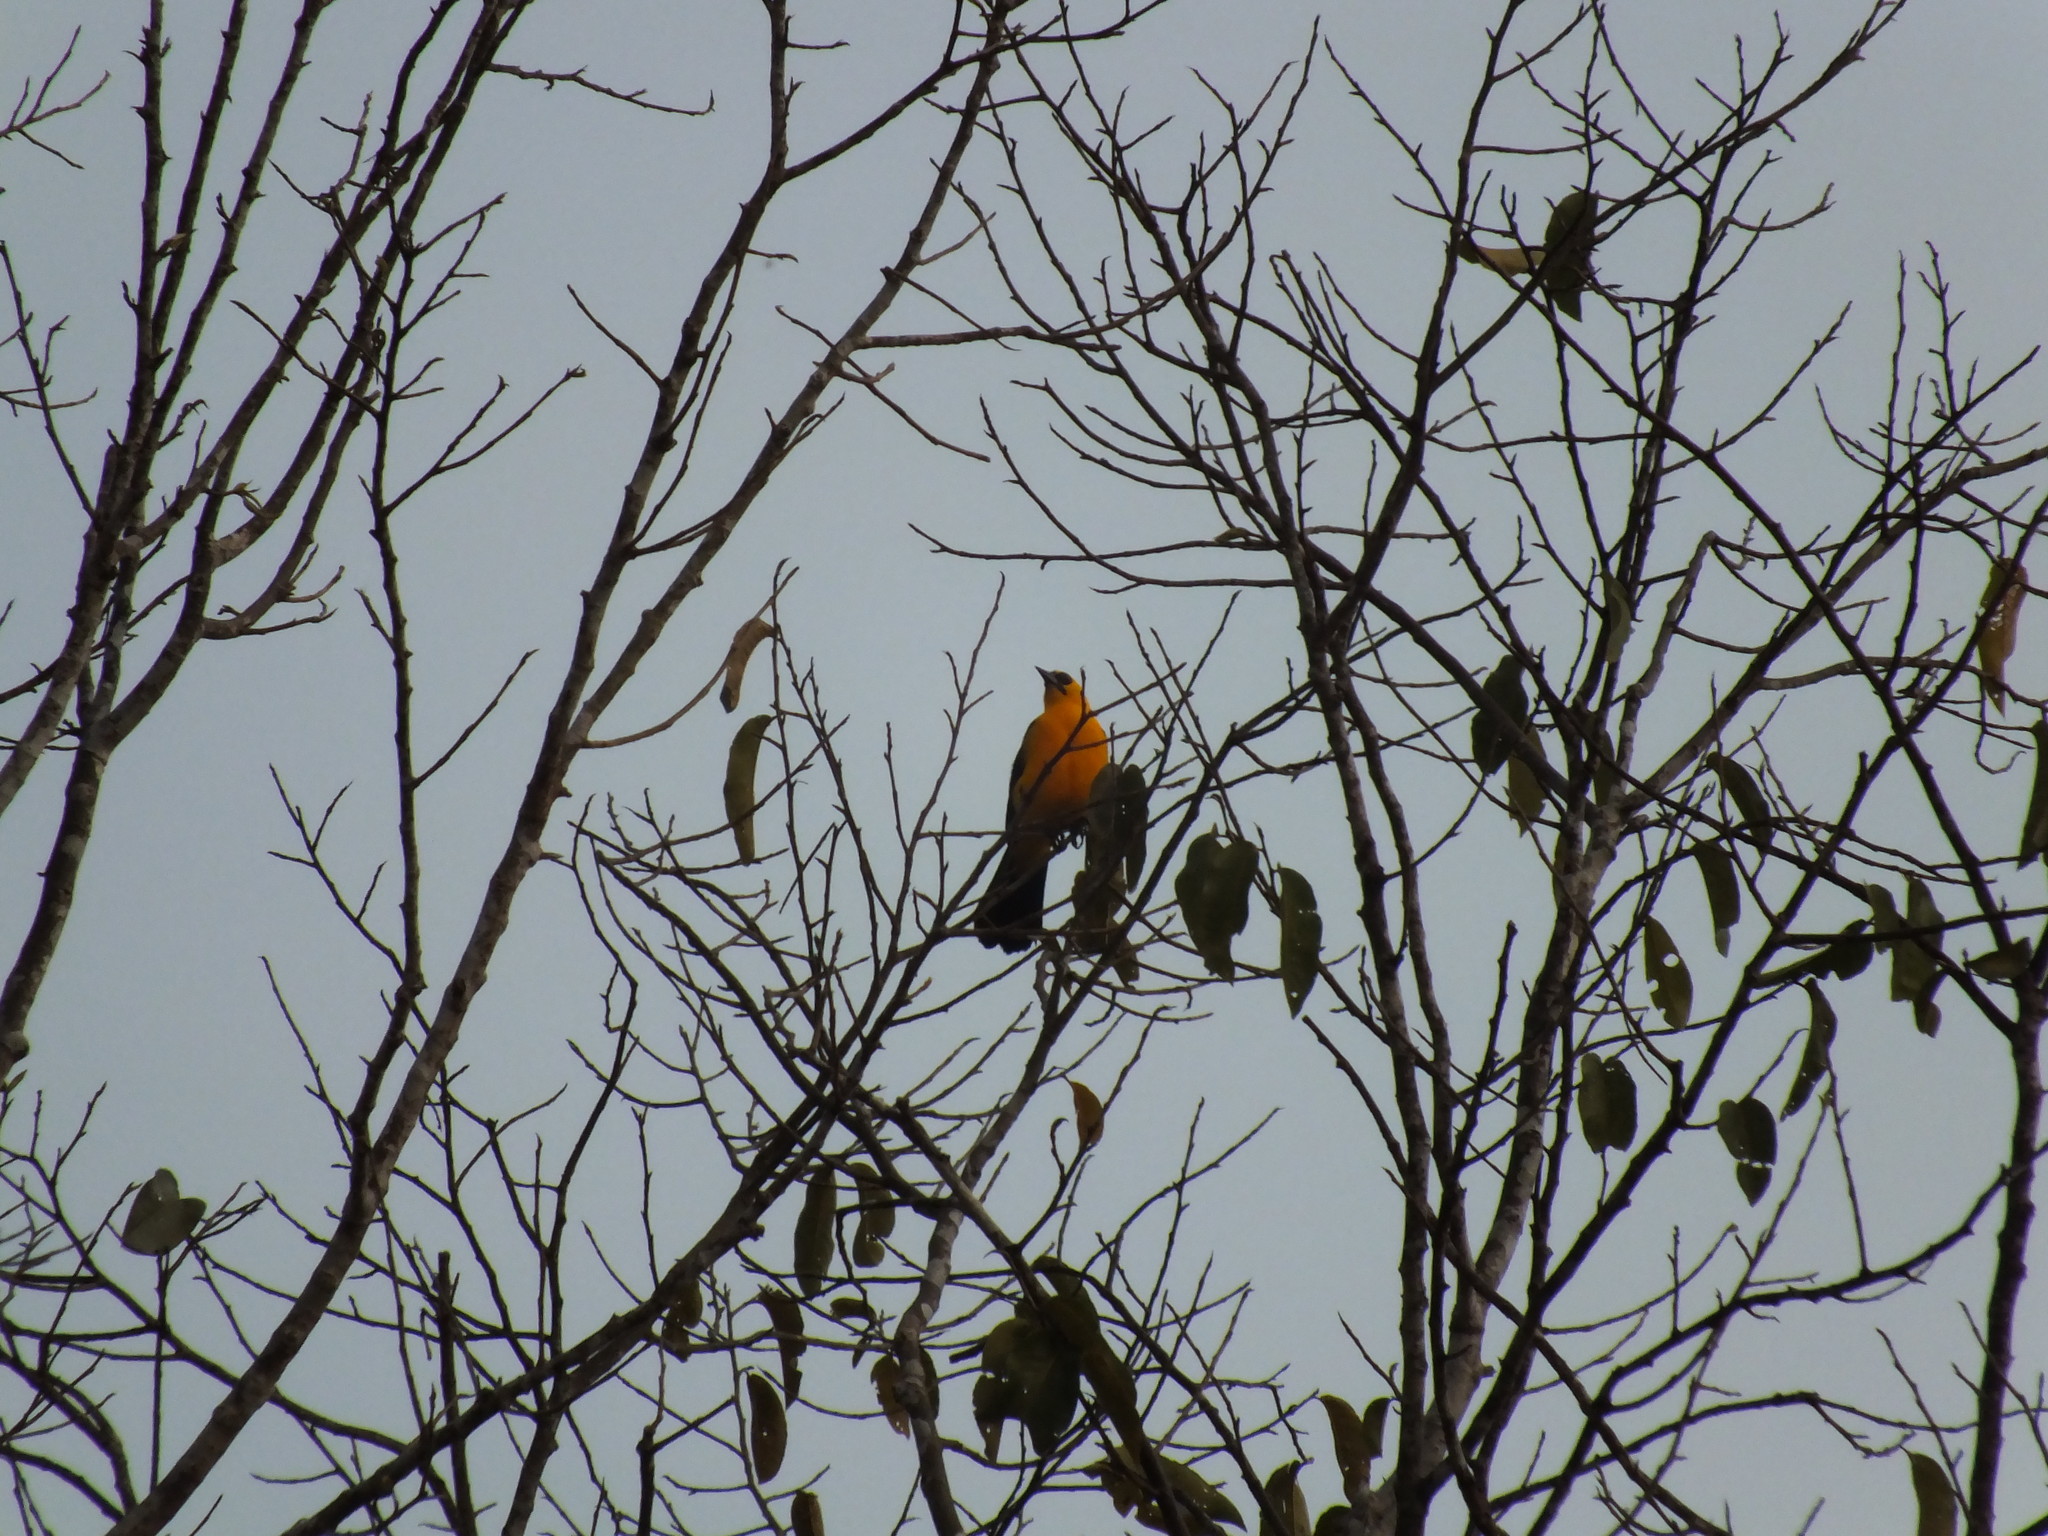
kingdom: Animalia
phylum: Chordata
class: Aves
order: Passeriformes
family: Icteridae
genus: Gymnomystax
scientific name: Gymnomystax mexicanus
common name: Oriole blackbird
